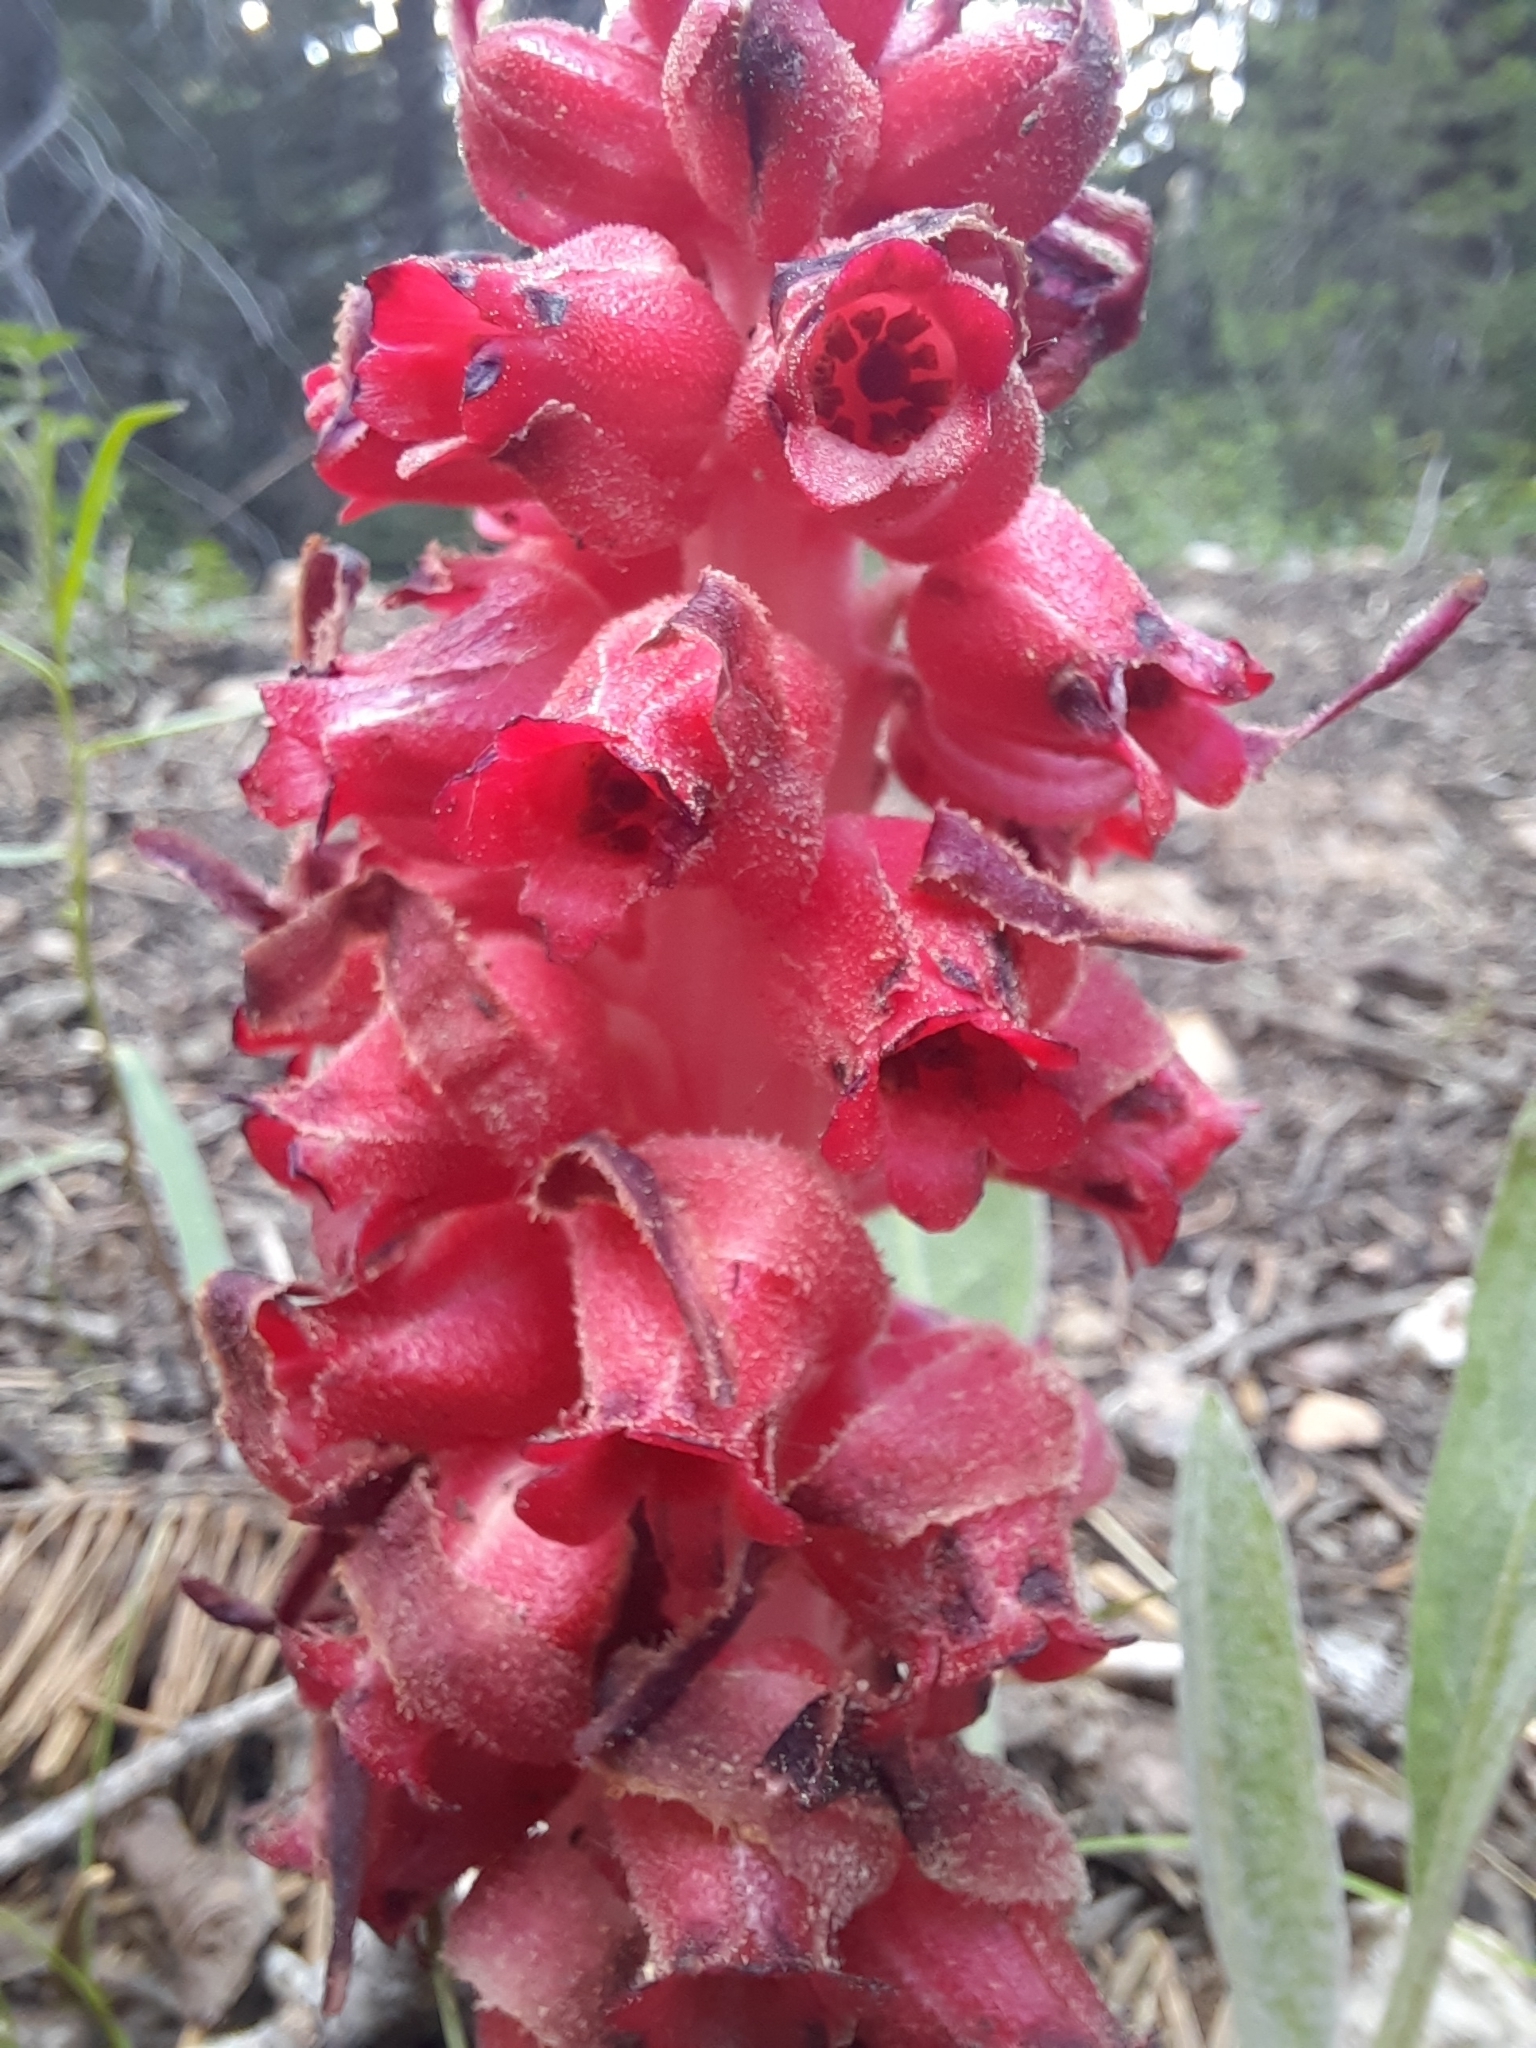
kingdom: Plantae
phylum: Tracheophyta
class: Magnoliopsida
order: Ericales
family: Ericaceae
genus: Sarcodes
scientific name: Sarcodes sanguinea
